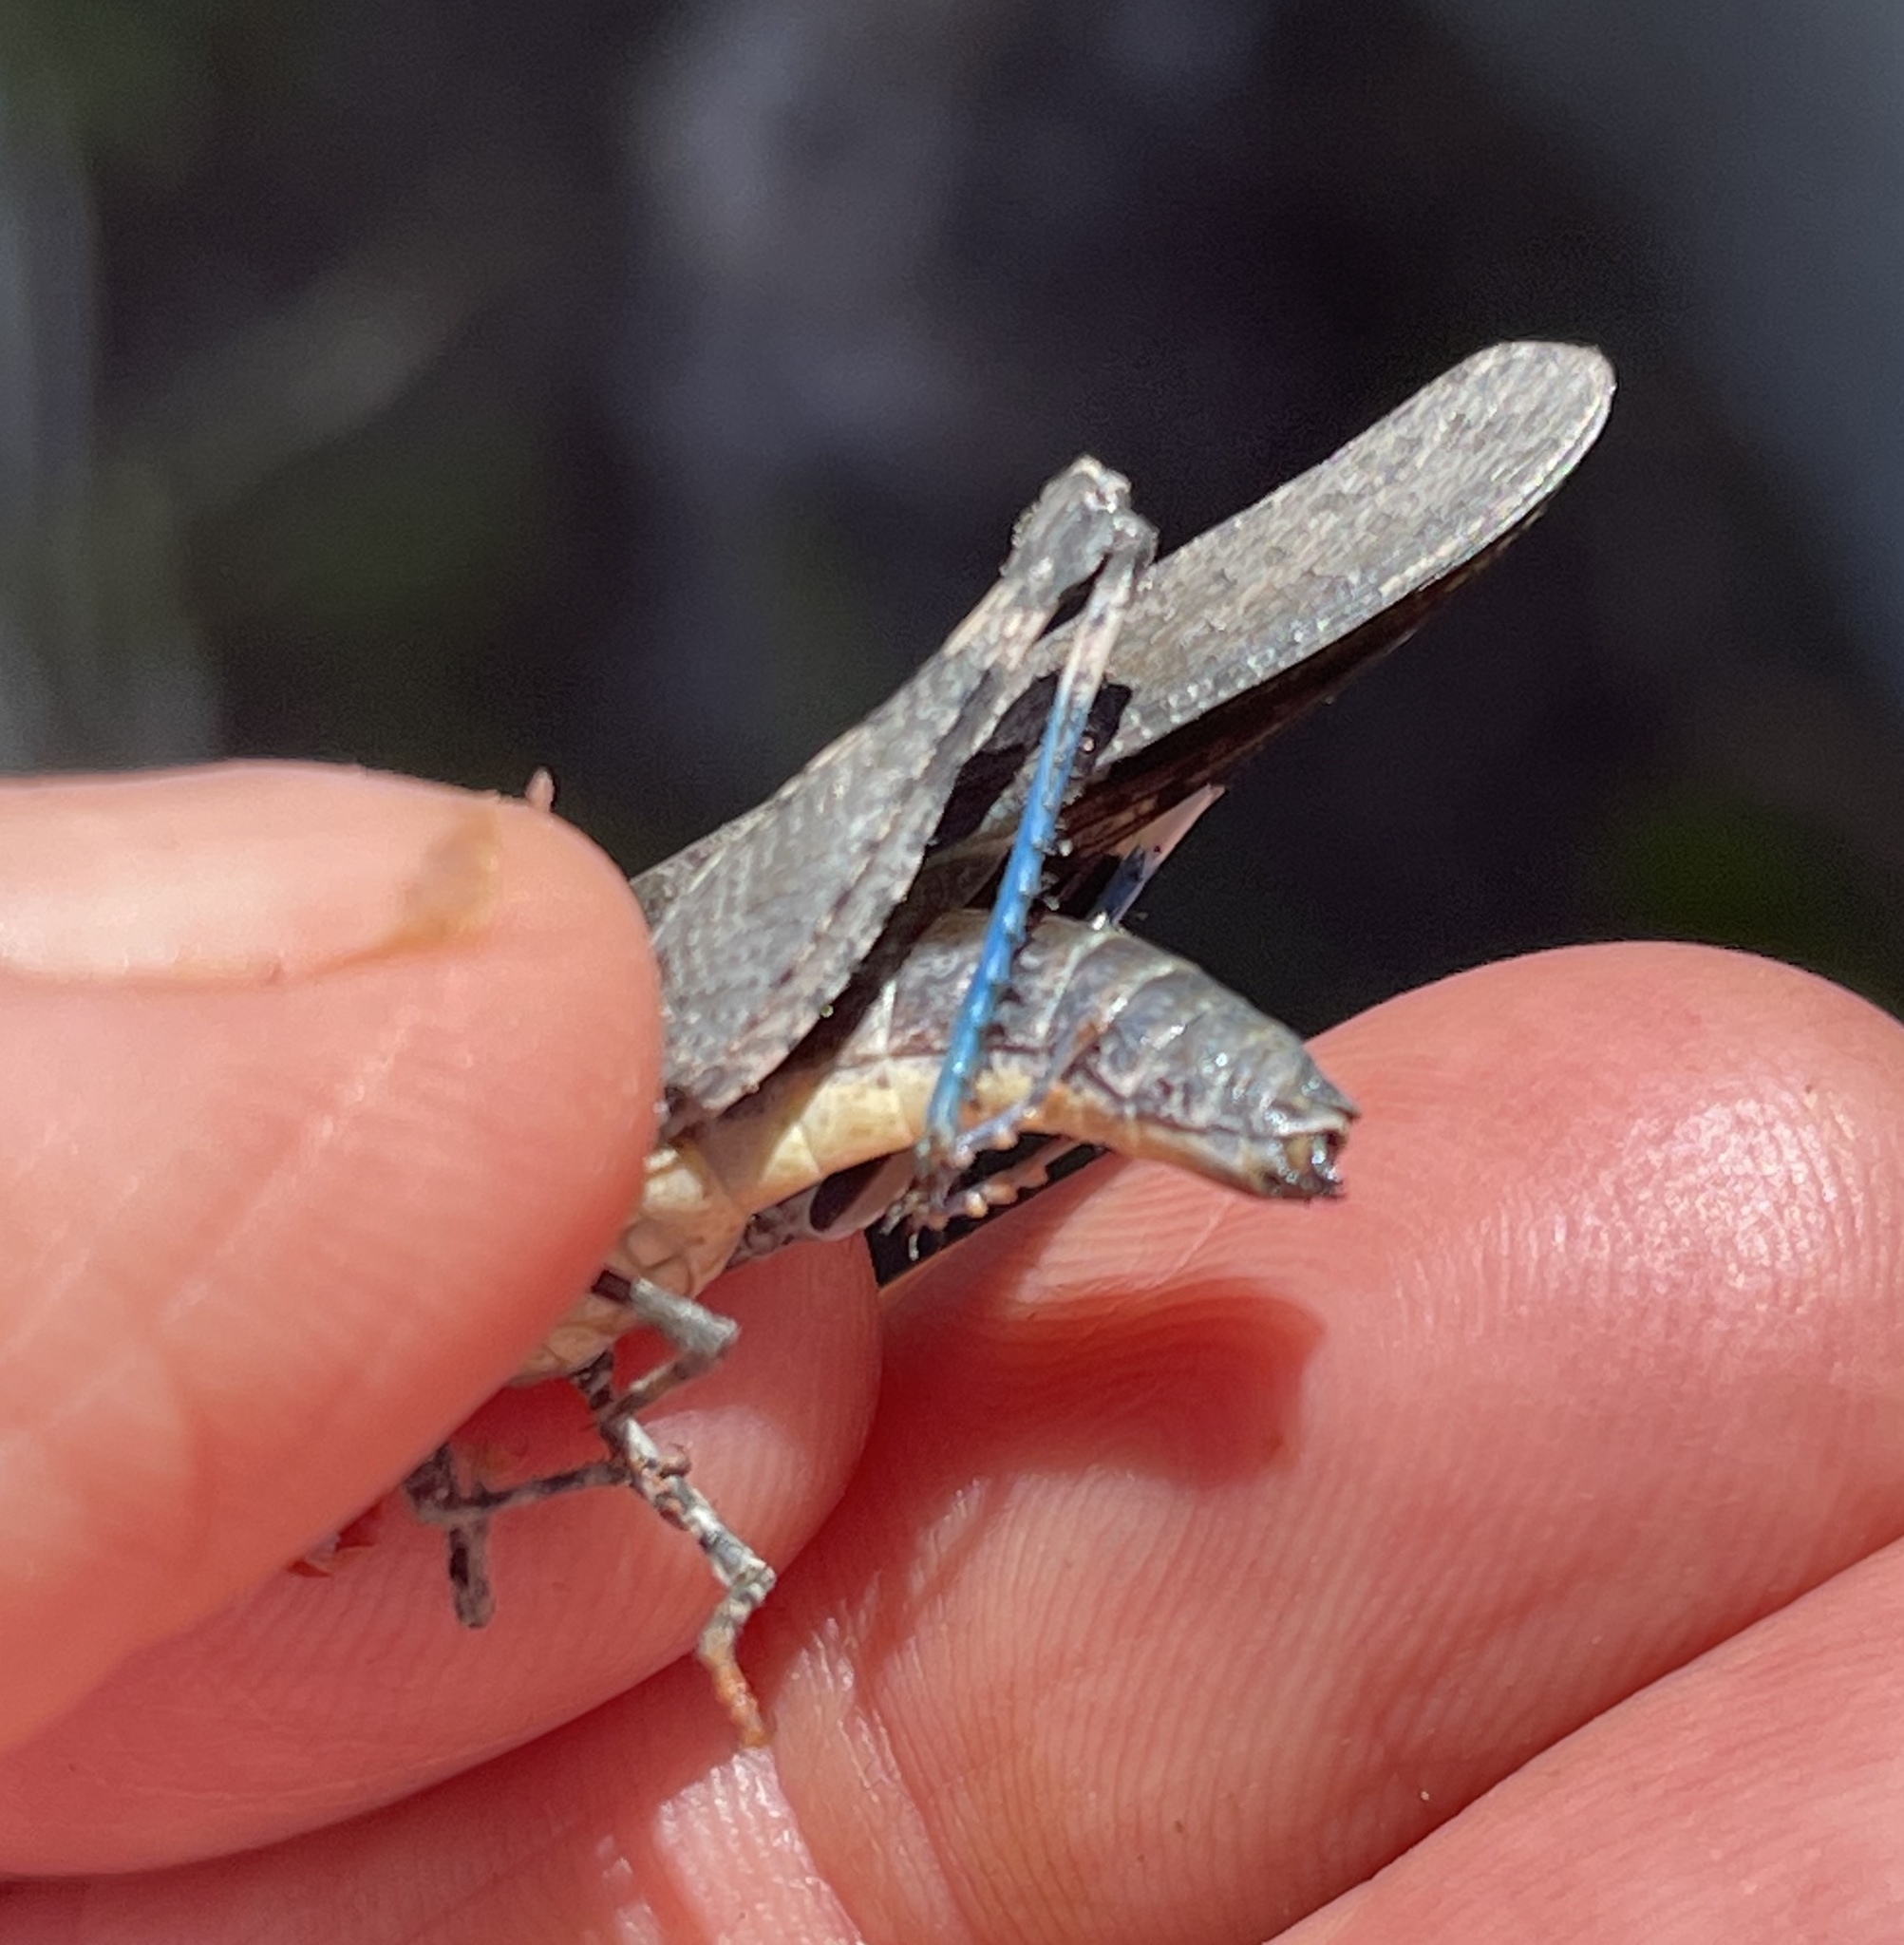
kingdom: Animalia
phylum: Arthropoda
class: Insecta
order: Orthoptera
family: Acrididae
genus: Trimerotropis
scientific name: Trimerotropis fontana
